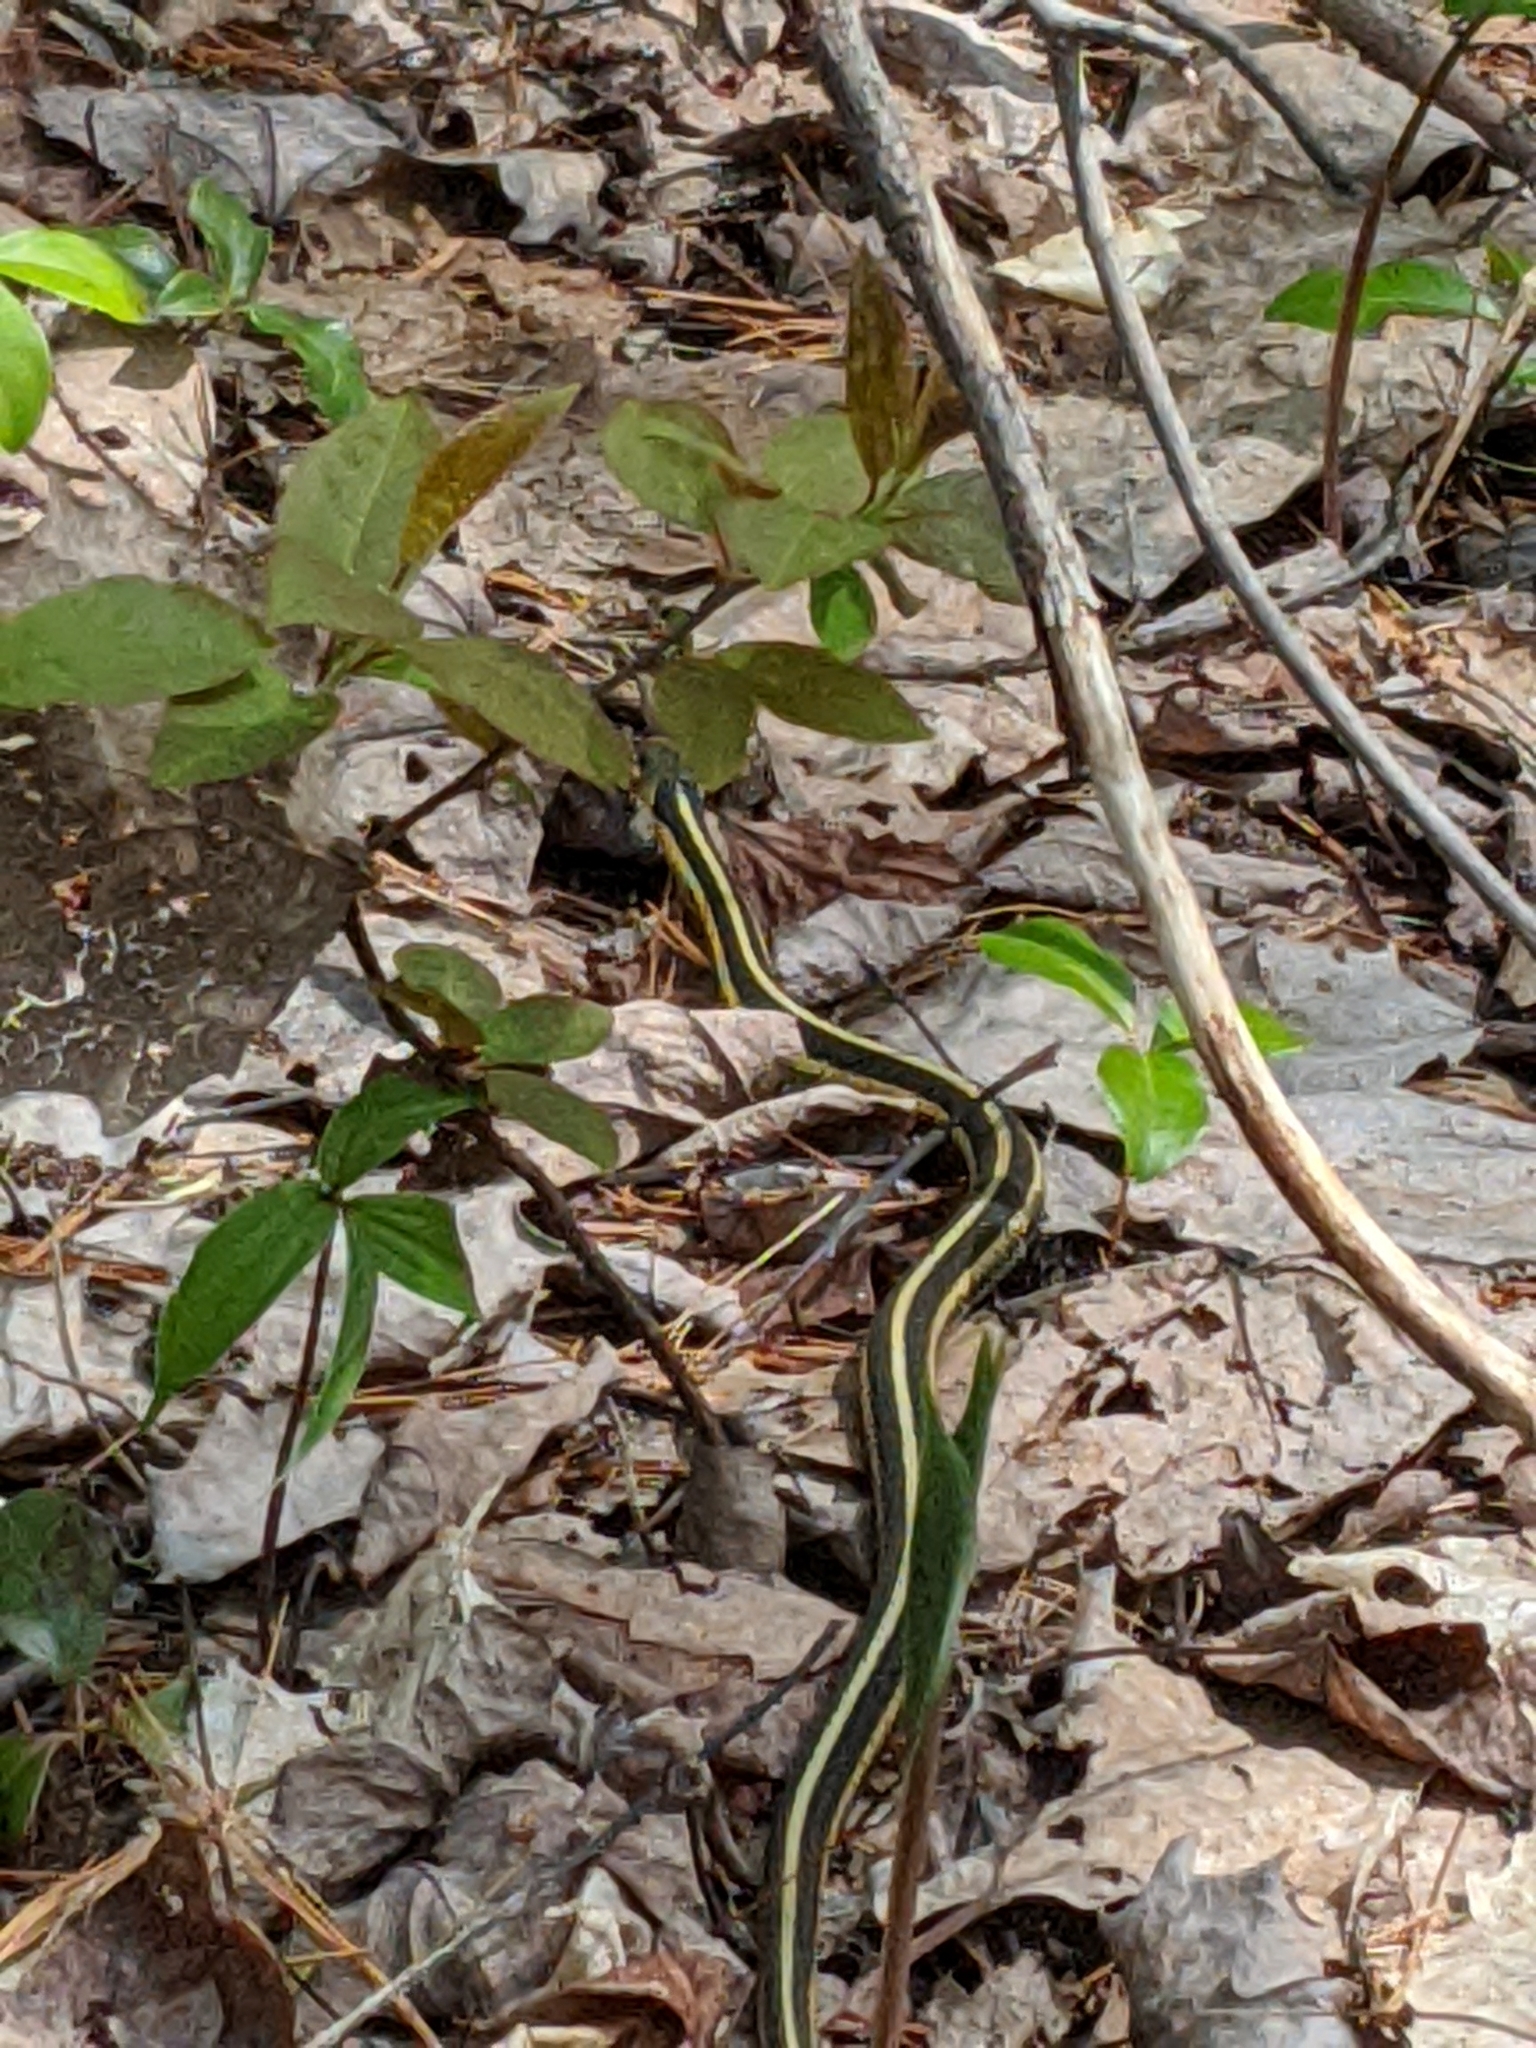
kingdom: Animalia
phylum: Chordata
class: Squamata
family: Colubridae
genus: Thamnophis
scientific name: Thamnophis sirtalis
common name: Common garter snake
